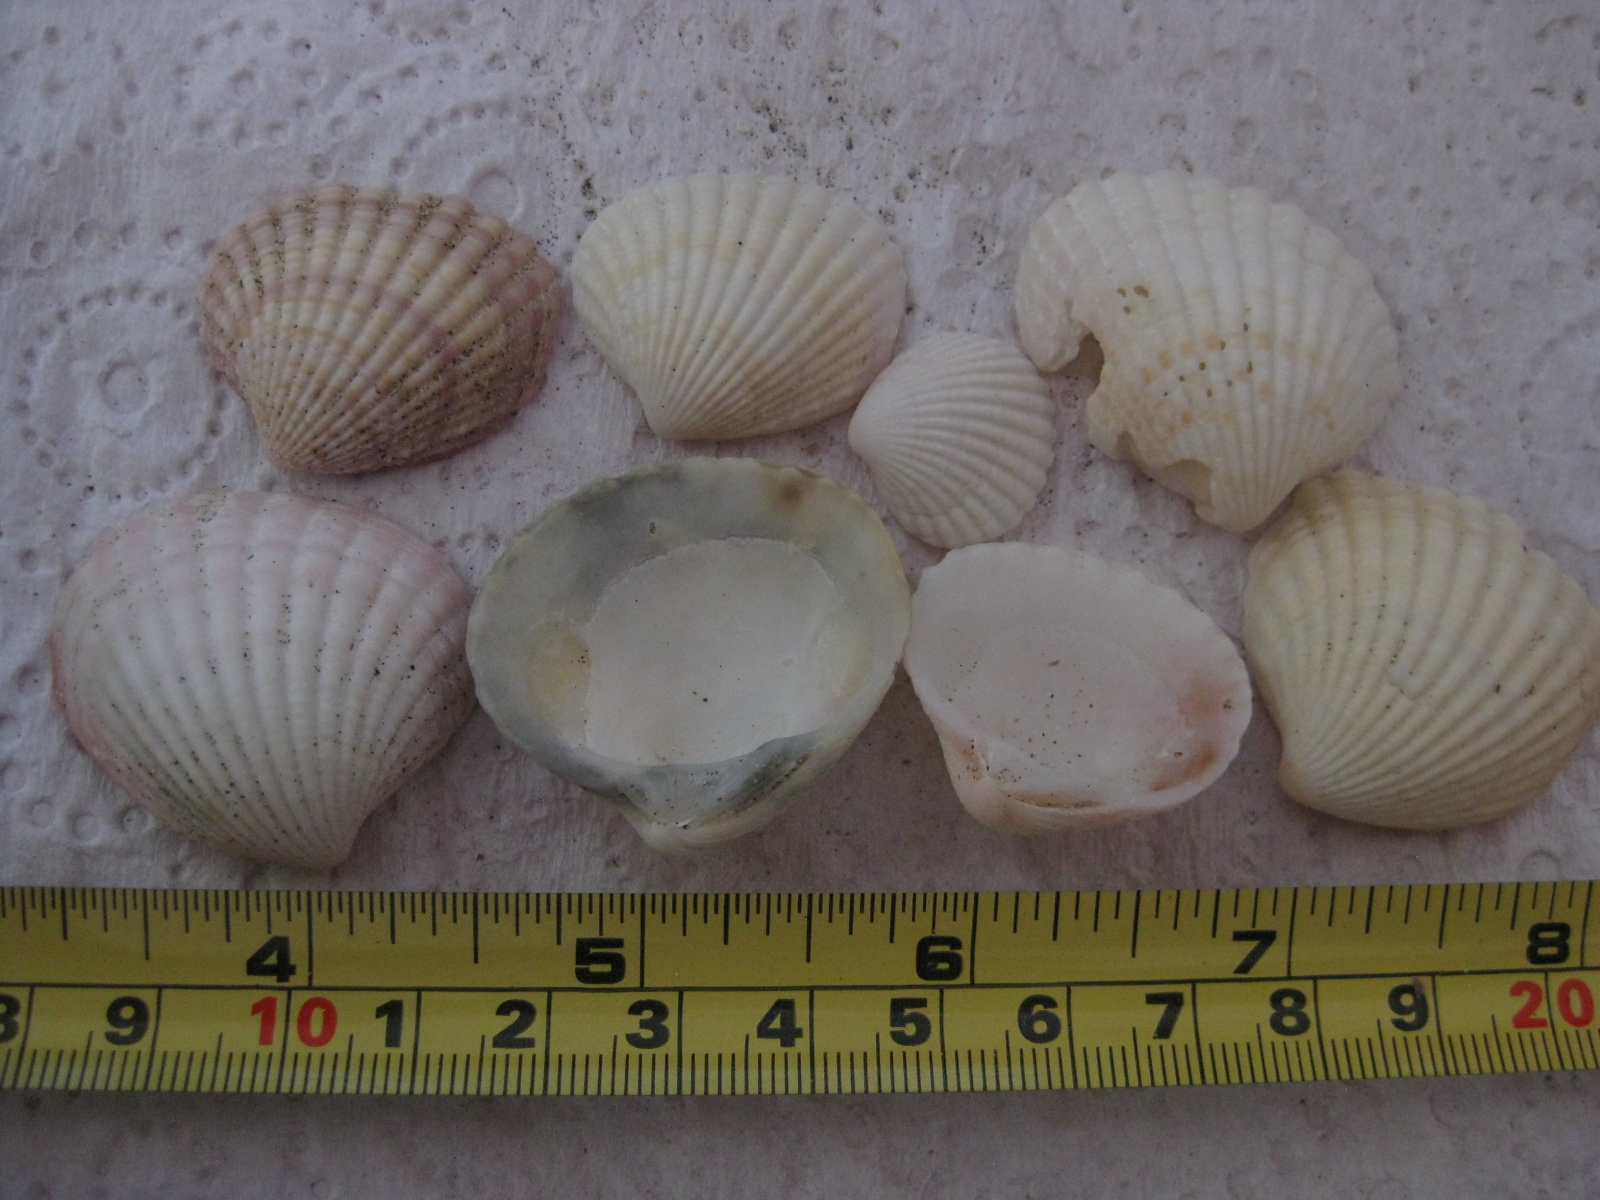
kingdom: Animalia
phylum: Mollusca
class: Bivalvia
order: Carditida
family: Carditidae
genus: Purpurocardia
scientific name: Purpurocardia purpurata
